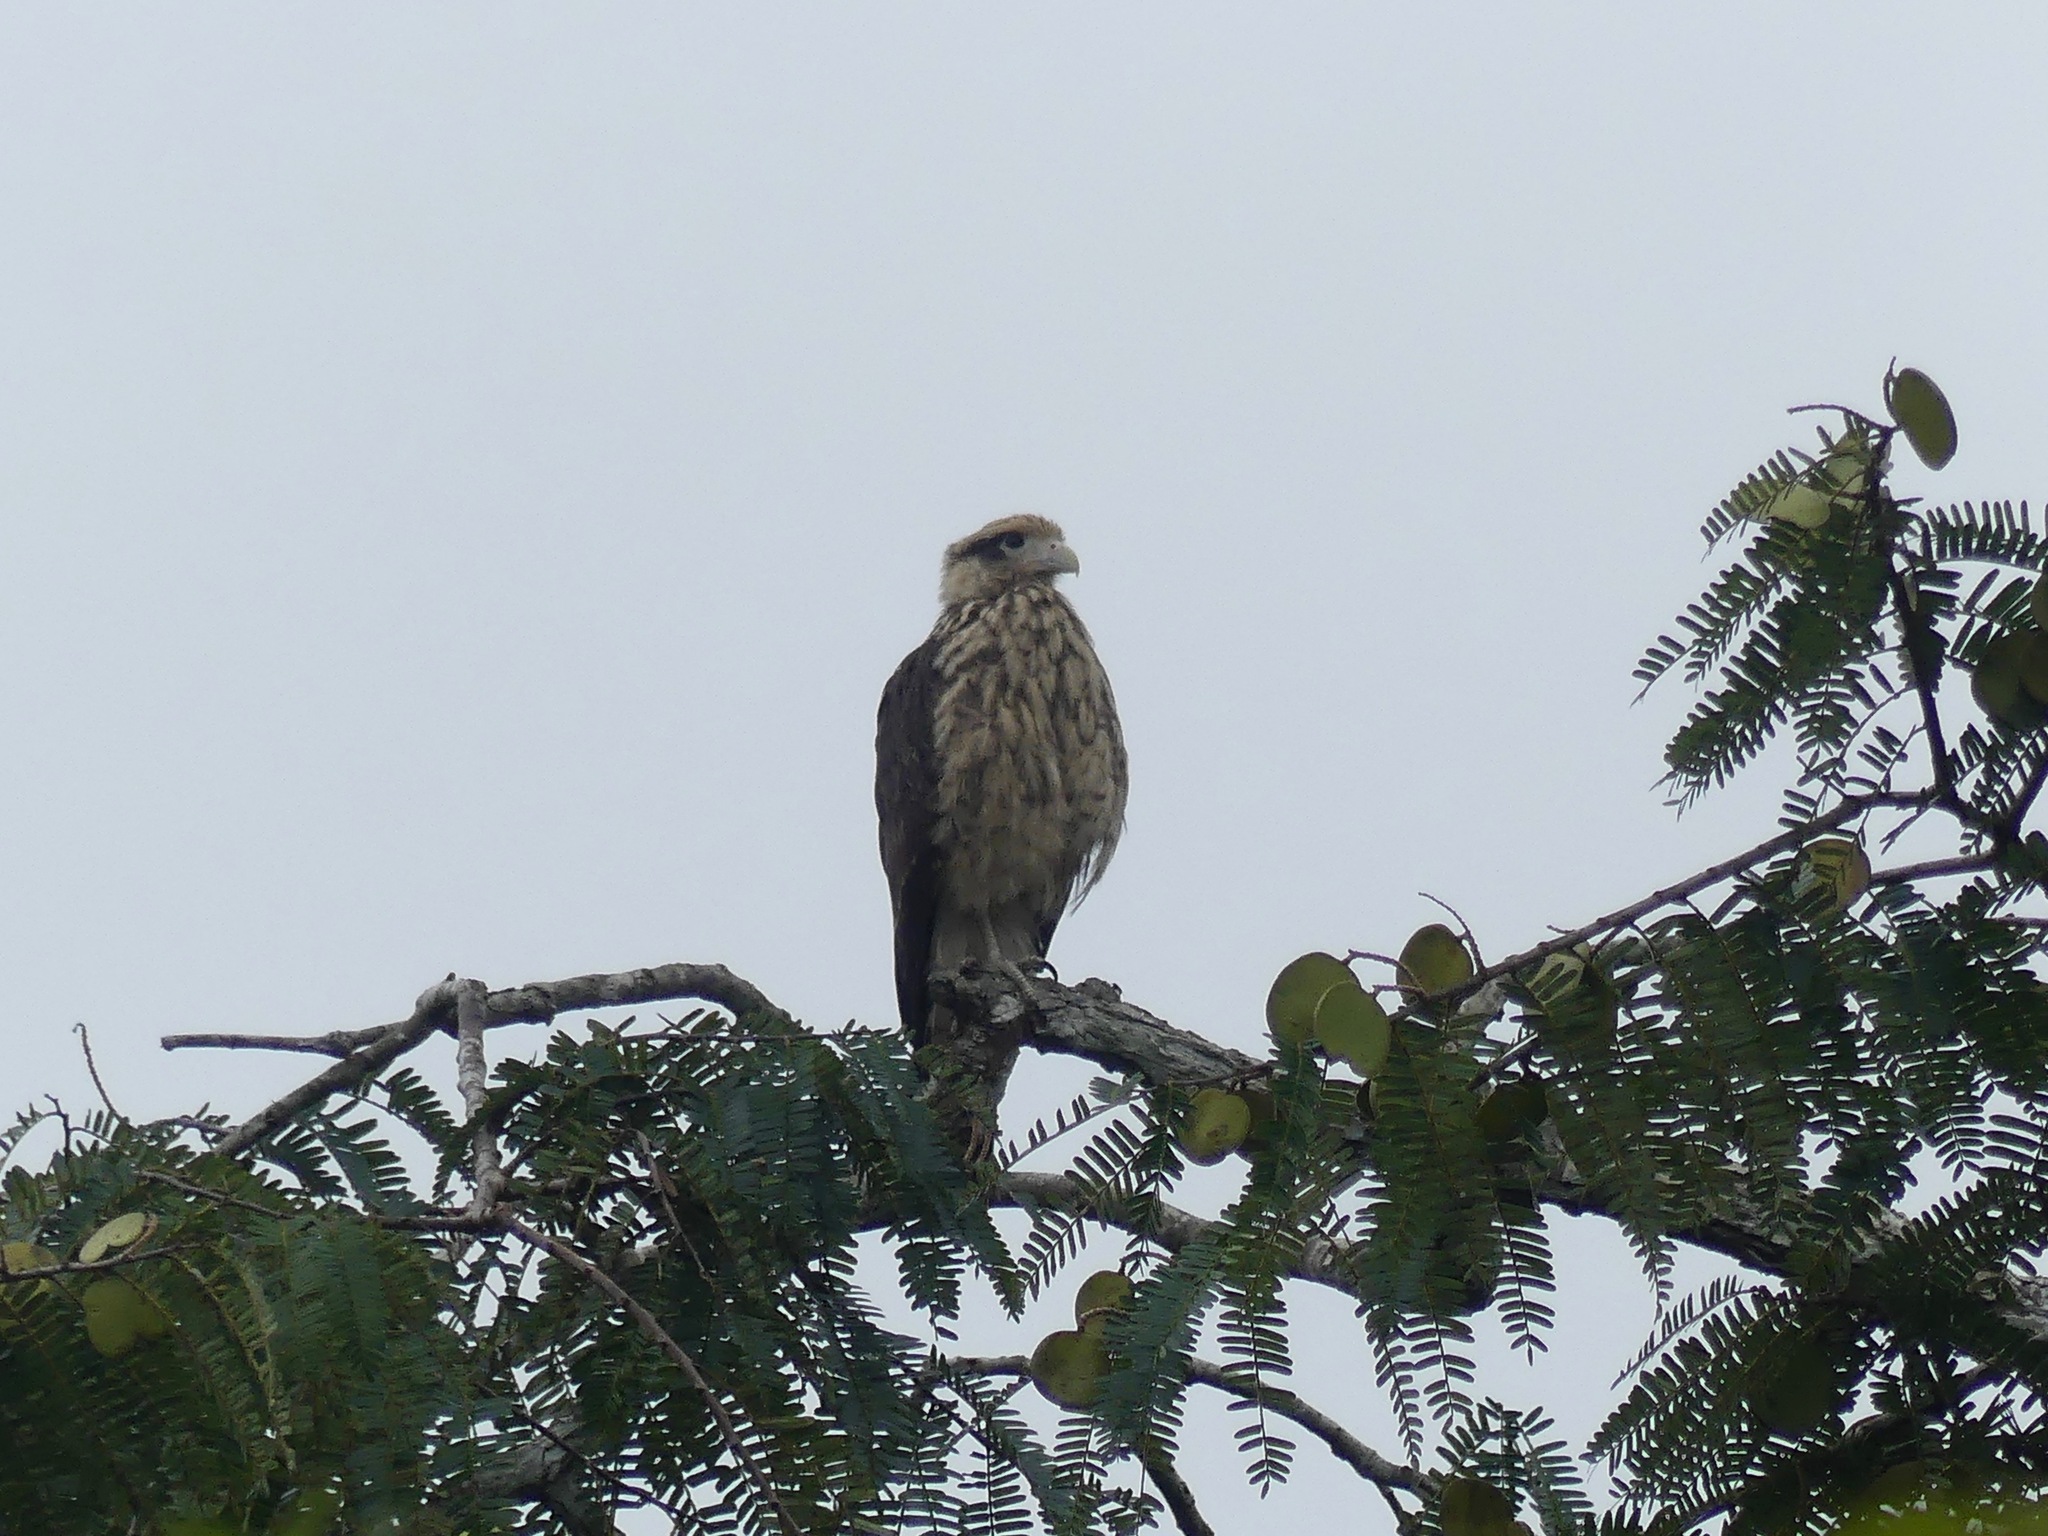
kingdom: Animalia
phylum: Chordata
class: Aves
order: Falconiformes
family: Falconidae
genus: Daptrius
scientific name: Daptrius
